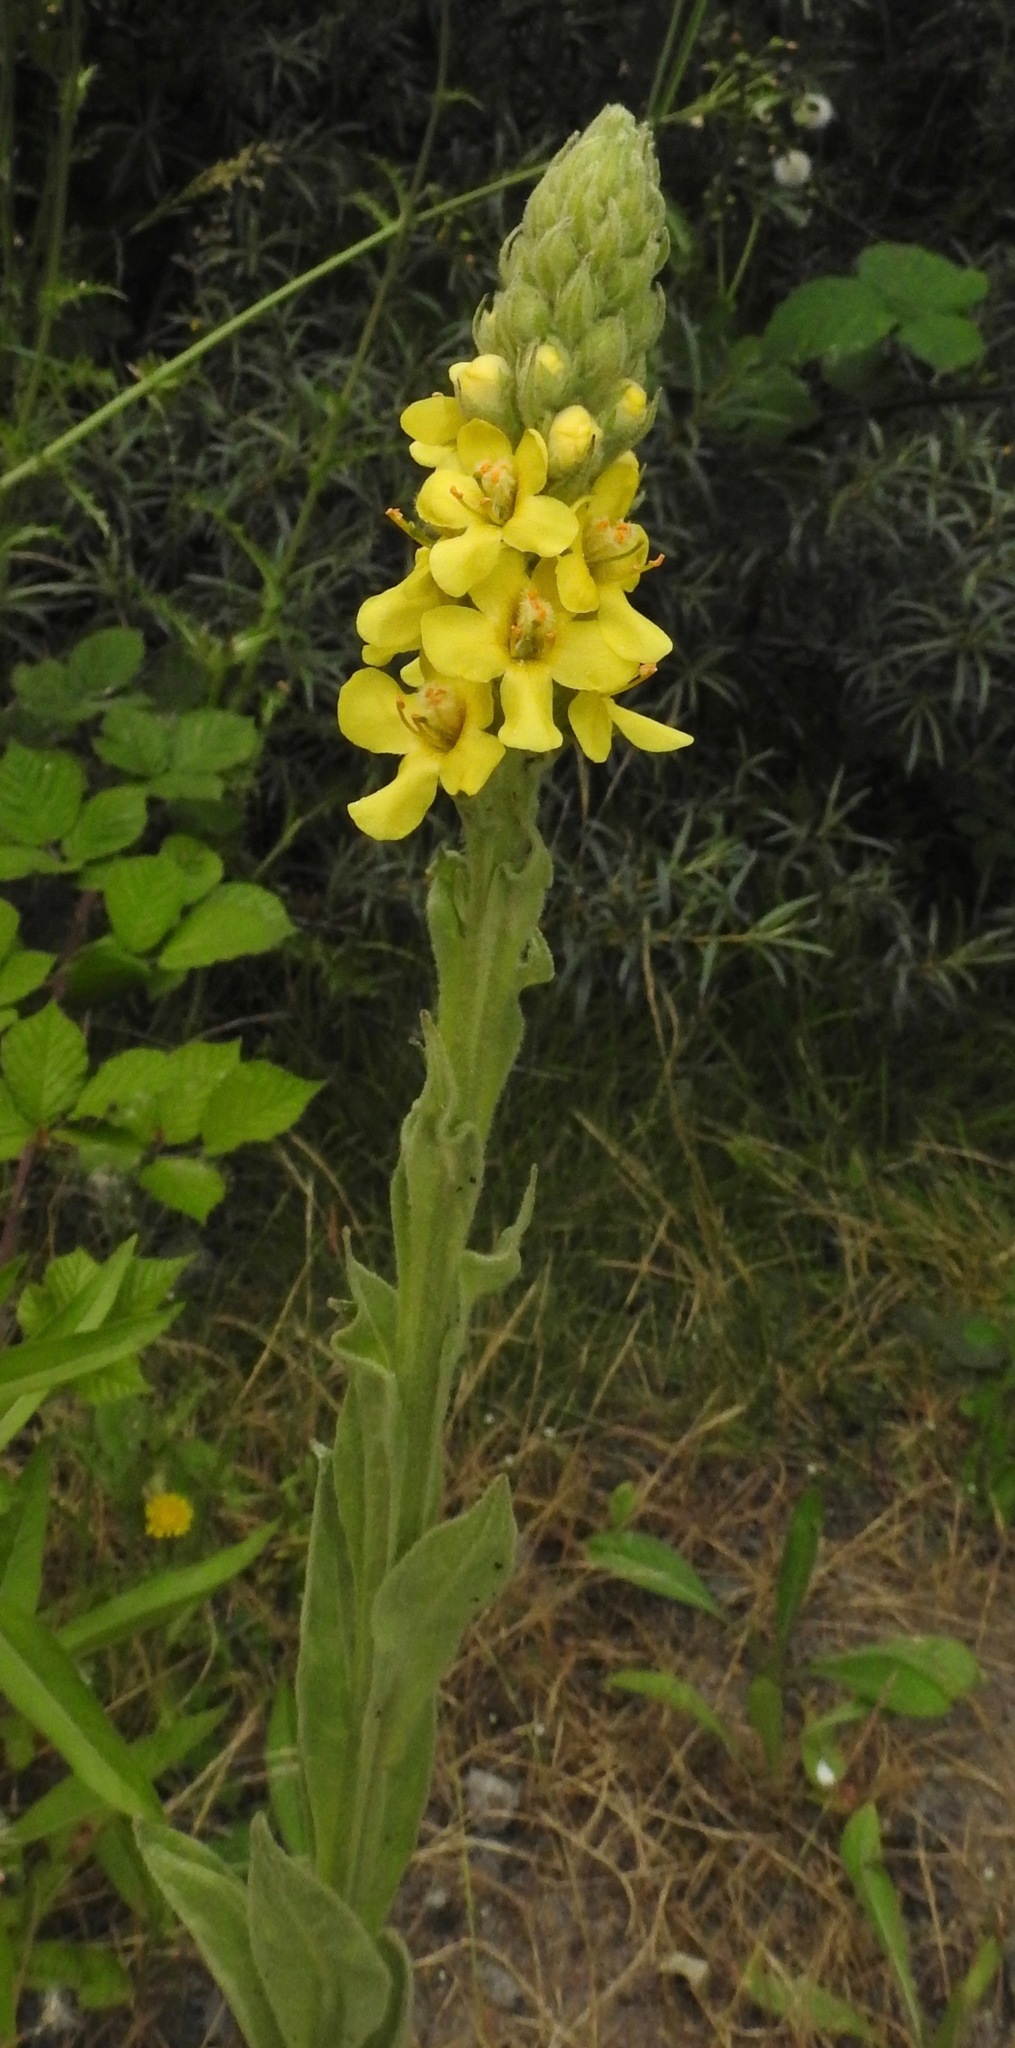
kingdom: Plantae
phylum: Tracheophyta
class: Magnoliopsida
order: Lamiales
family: Scrophulariaceae
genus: Verbascum
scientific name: Verbascum thapsus
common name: Common mullein
